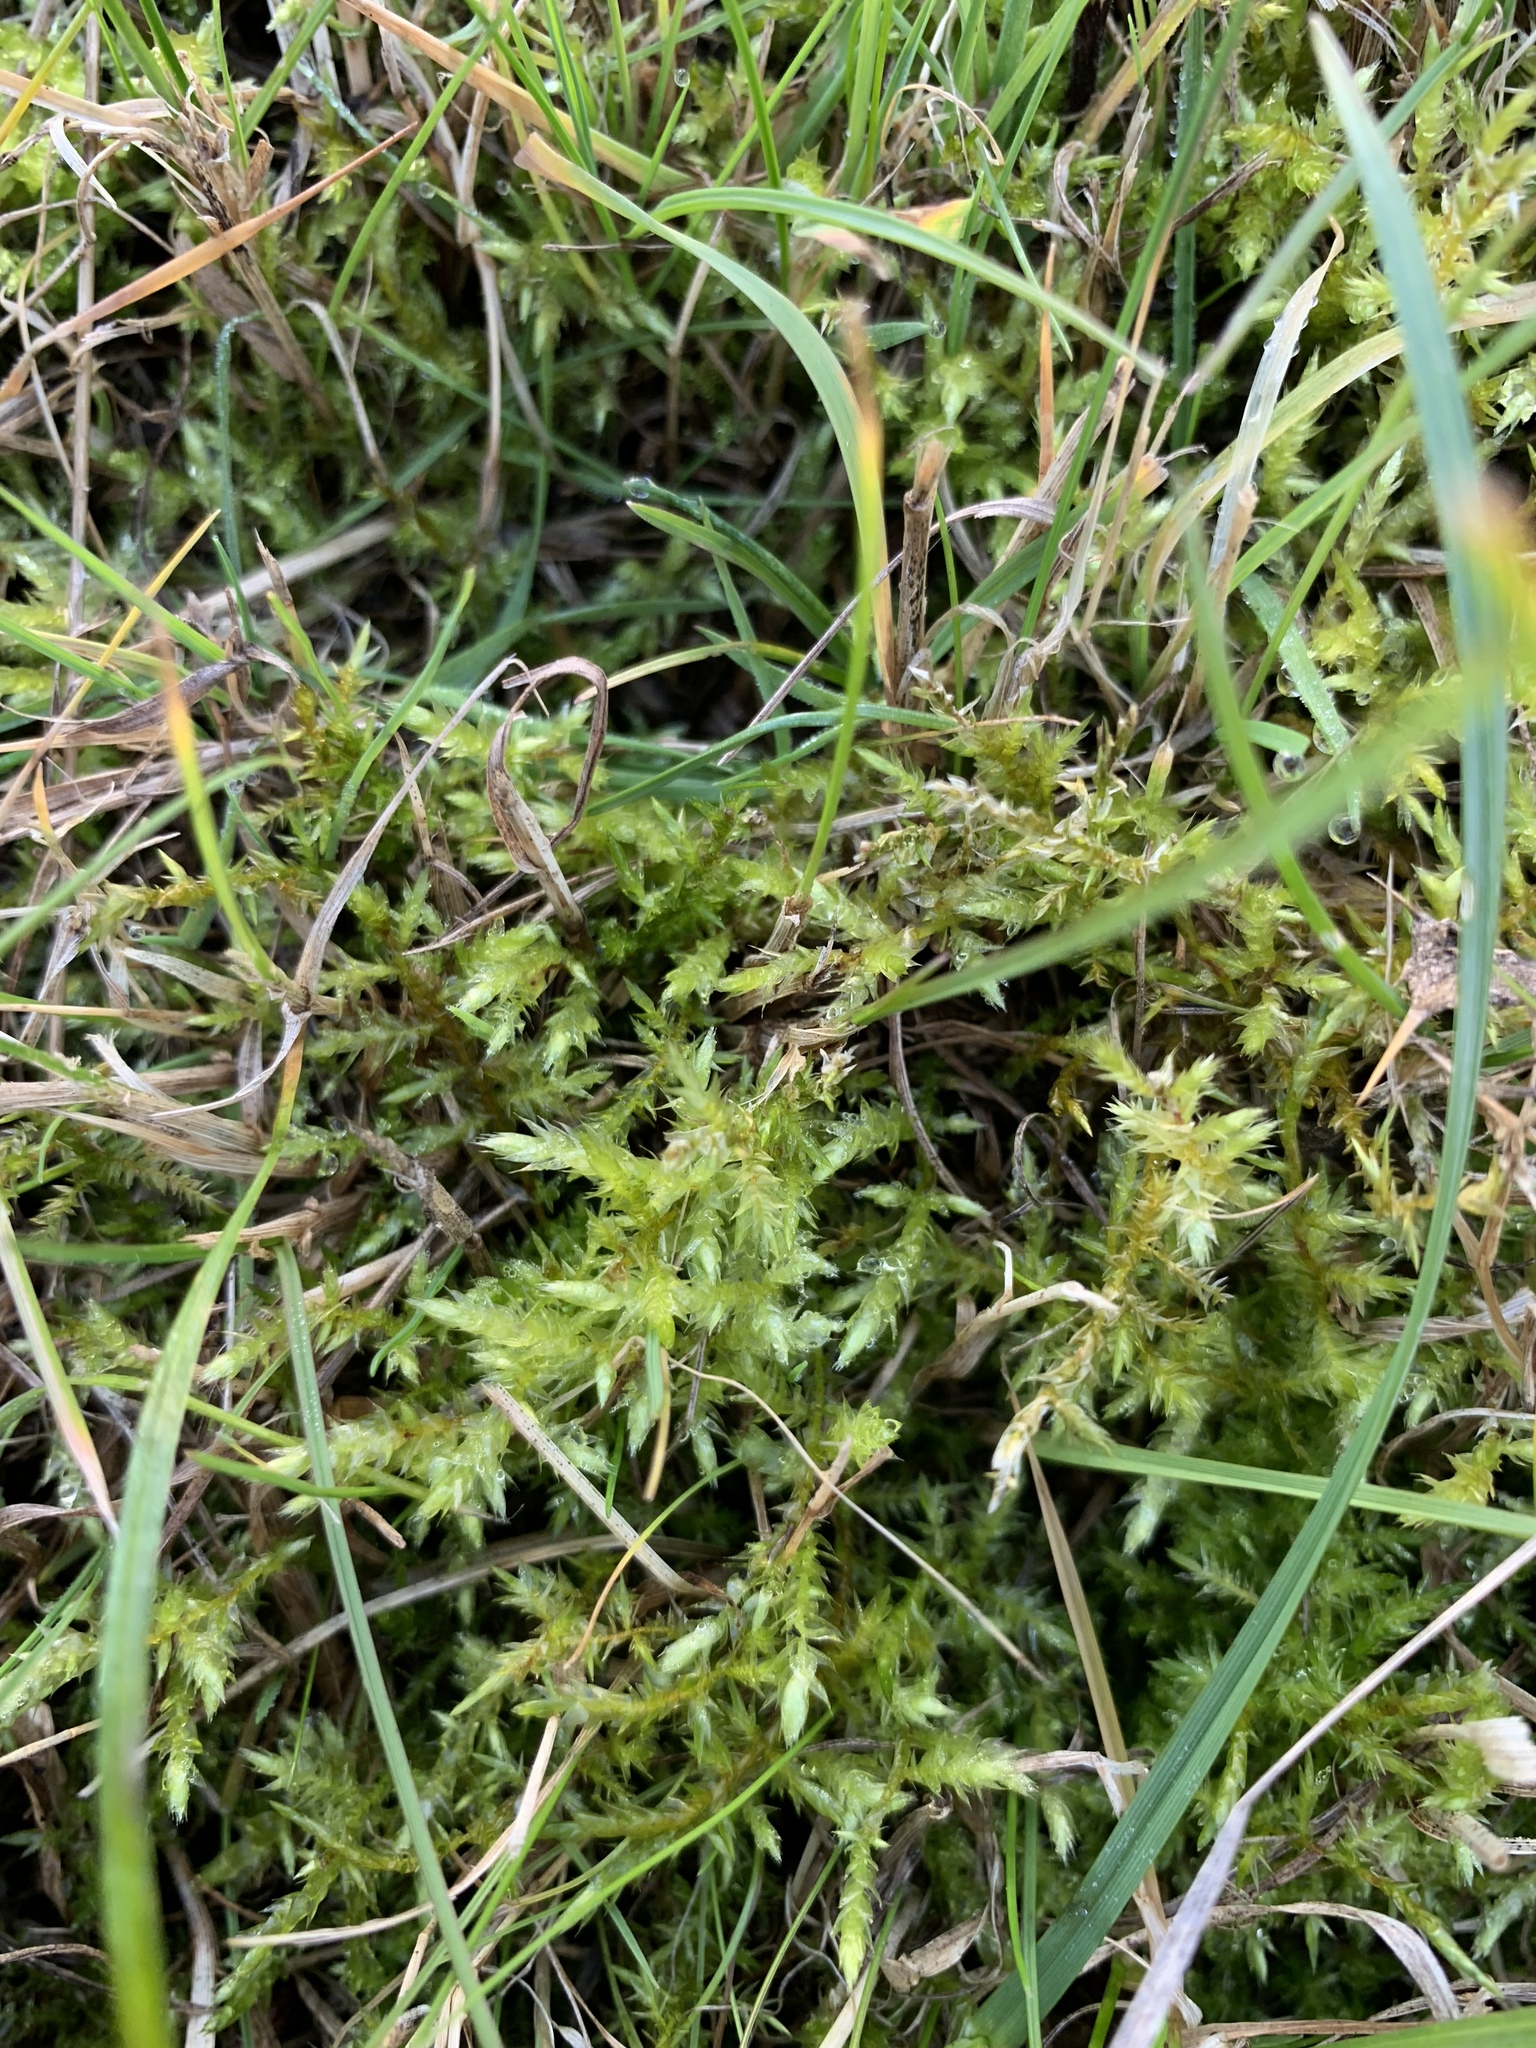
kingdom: Plantae
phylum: Bryophyta
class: Bryopsida
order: Hypnales
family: Pylaisiaceae
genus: Calliergonella
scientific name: Calliergonella cuspidata
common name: Common large wetland moss
